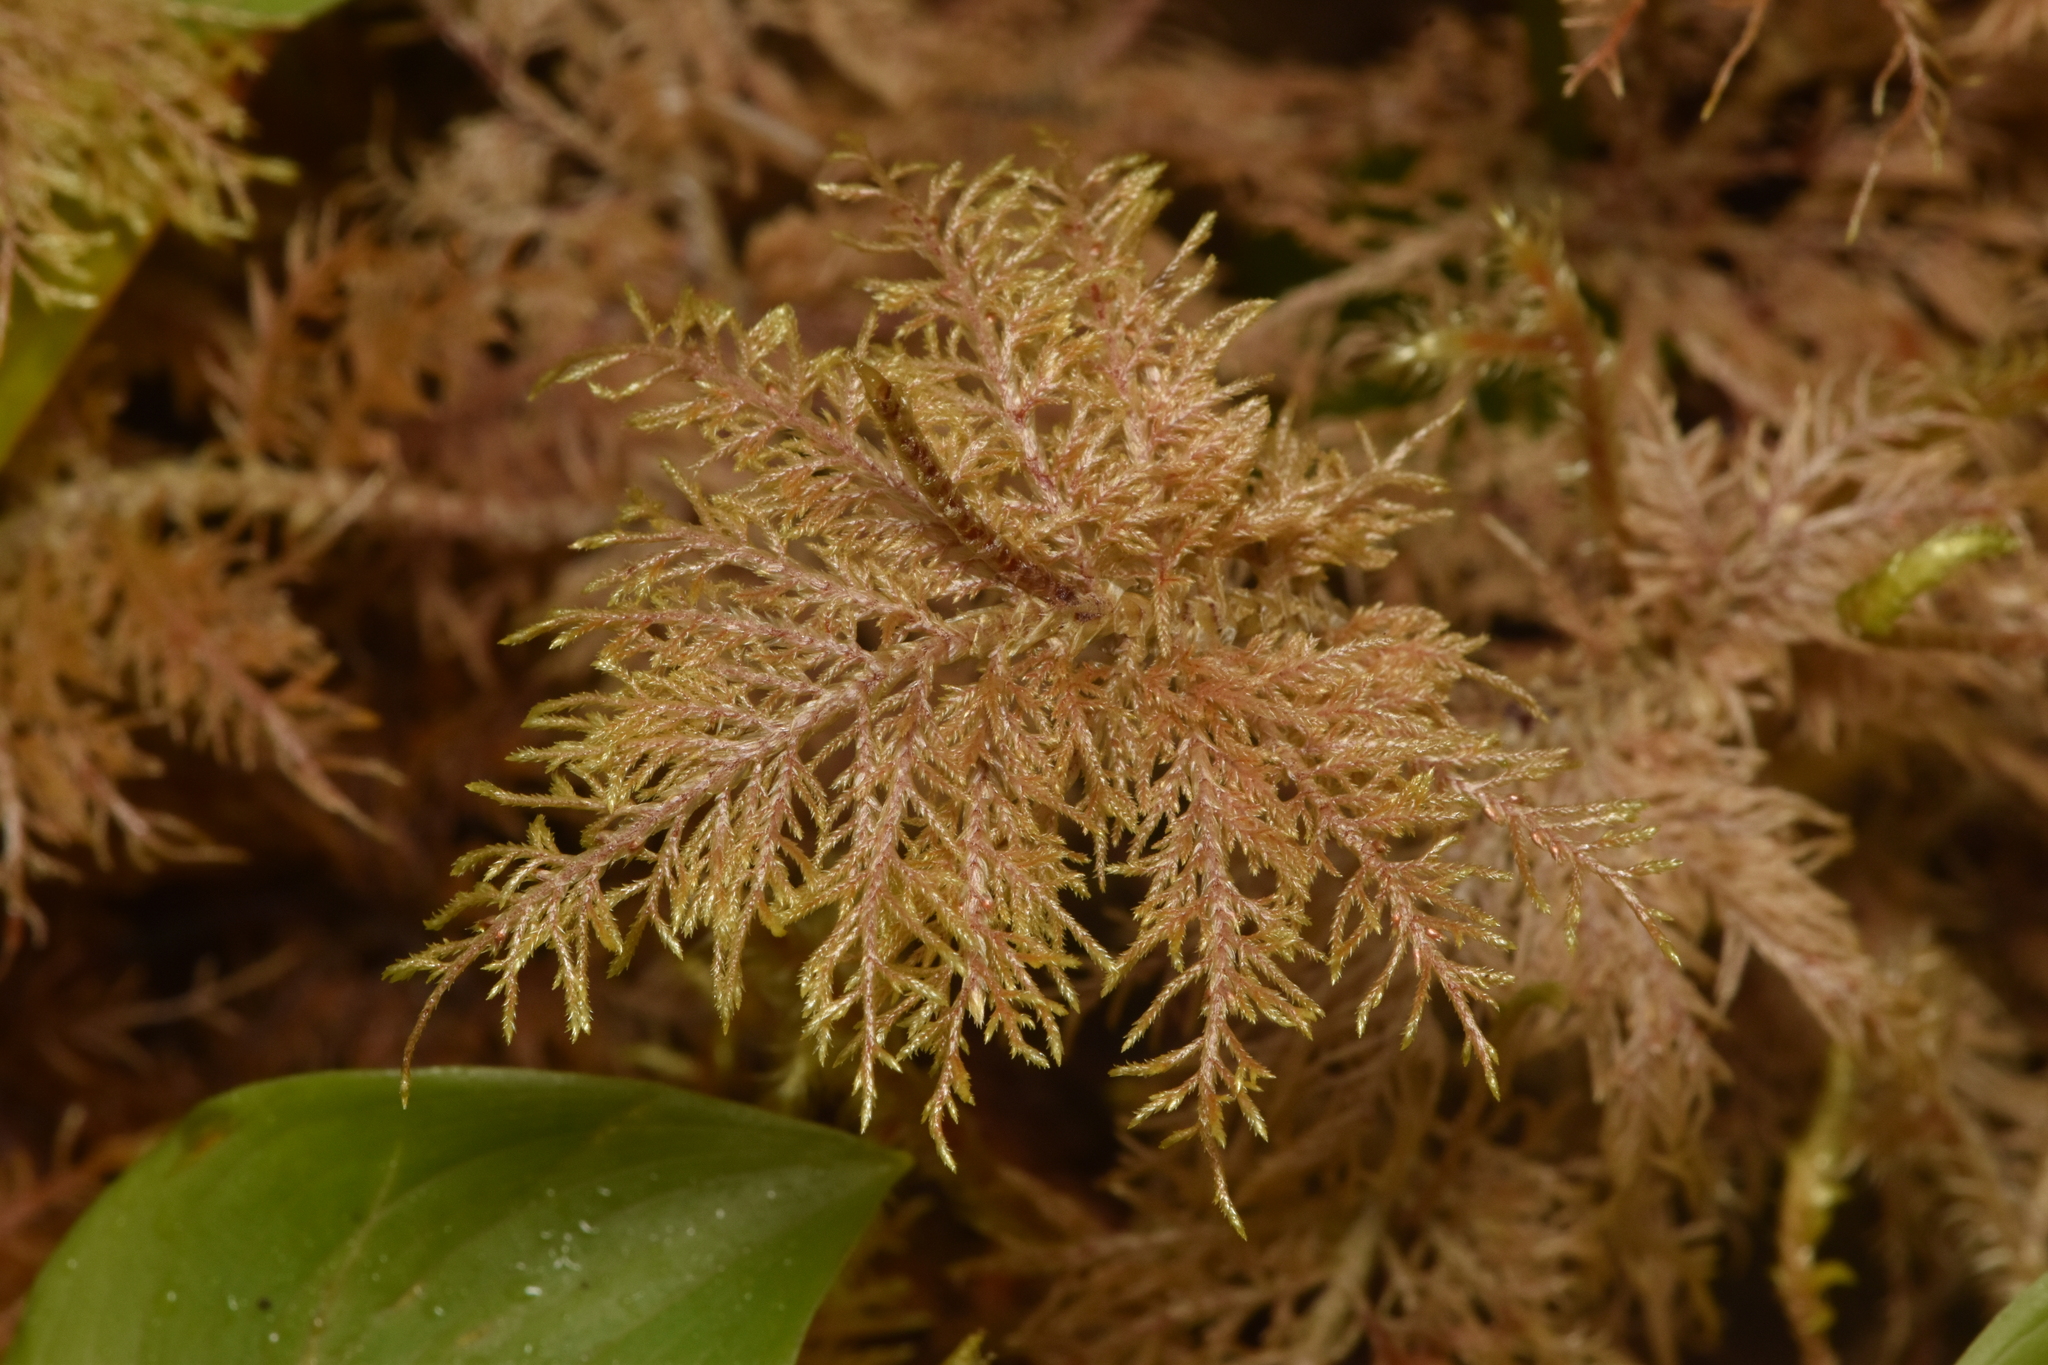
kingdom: Plantae
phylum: Bryophyta
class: Bryopsida
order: Hypnales
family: Hylocomiaceae
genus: Hylocomium
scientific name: Hylocomium splendens
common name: Stairstep moss
